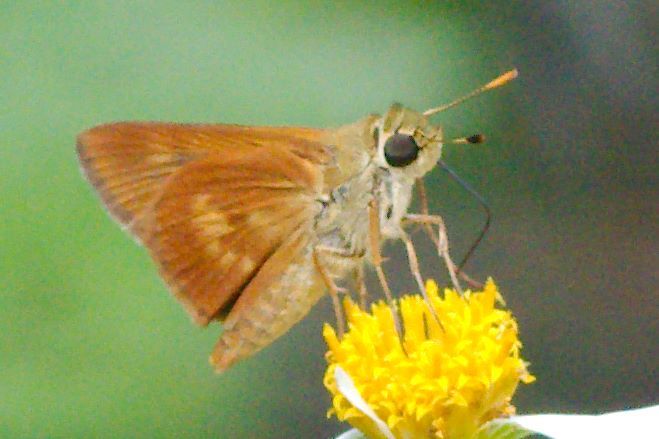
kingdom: Animalia
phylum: Arthropoda
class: Insecta
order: Lepidoptera
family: Hesperiidae
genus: Polites
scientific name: Polites otho
